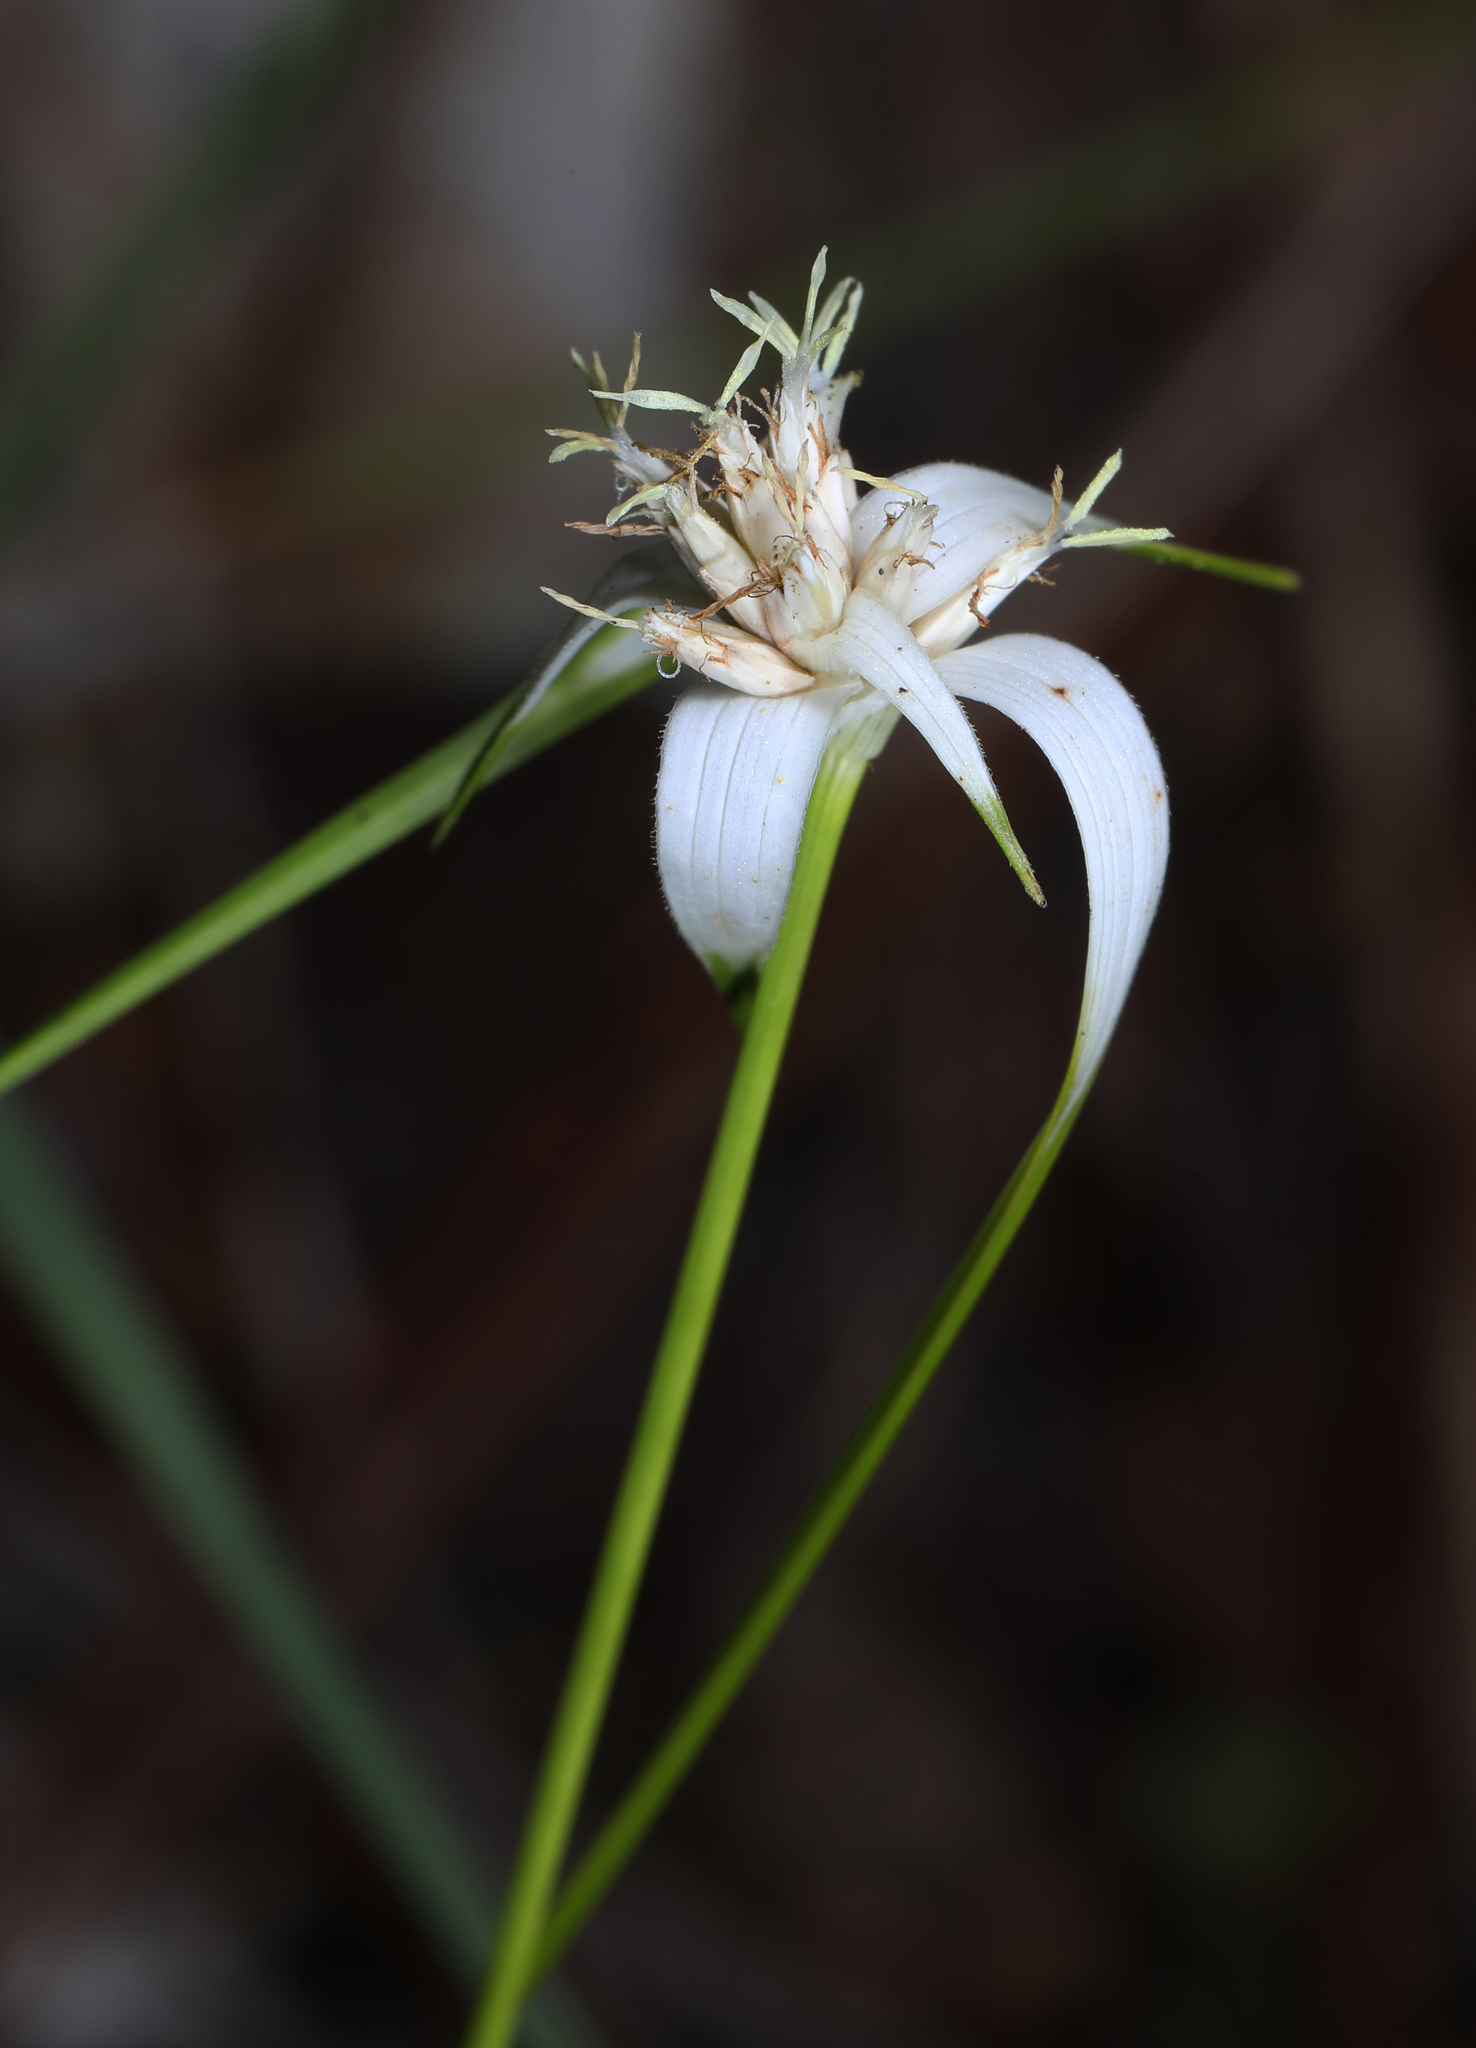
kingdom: Plantae
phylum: Tracheophyta
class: Liliopsida
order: Poales
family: Cyperaceae
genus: Rhynchospora
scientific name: Rhynchospora colorata
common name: Star sedge
